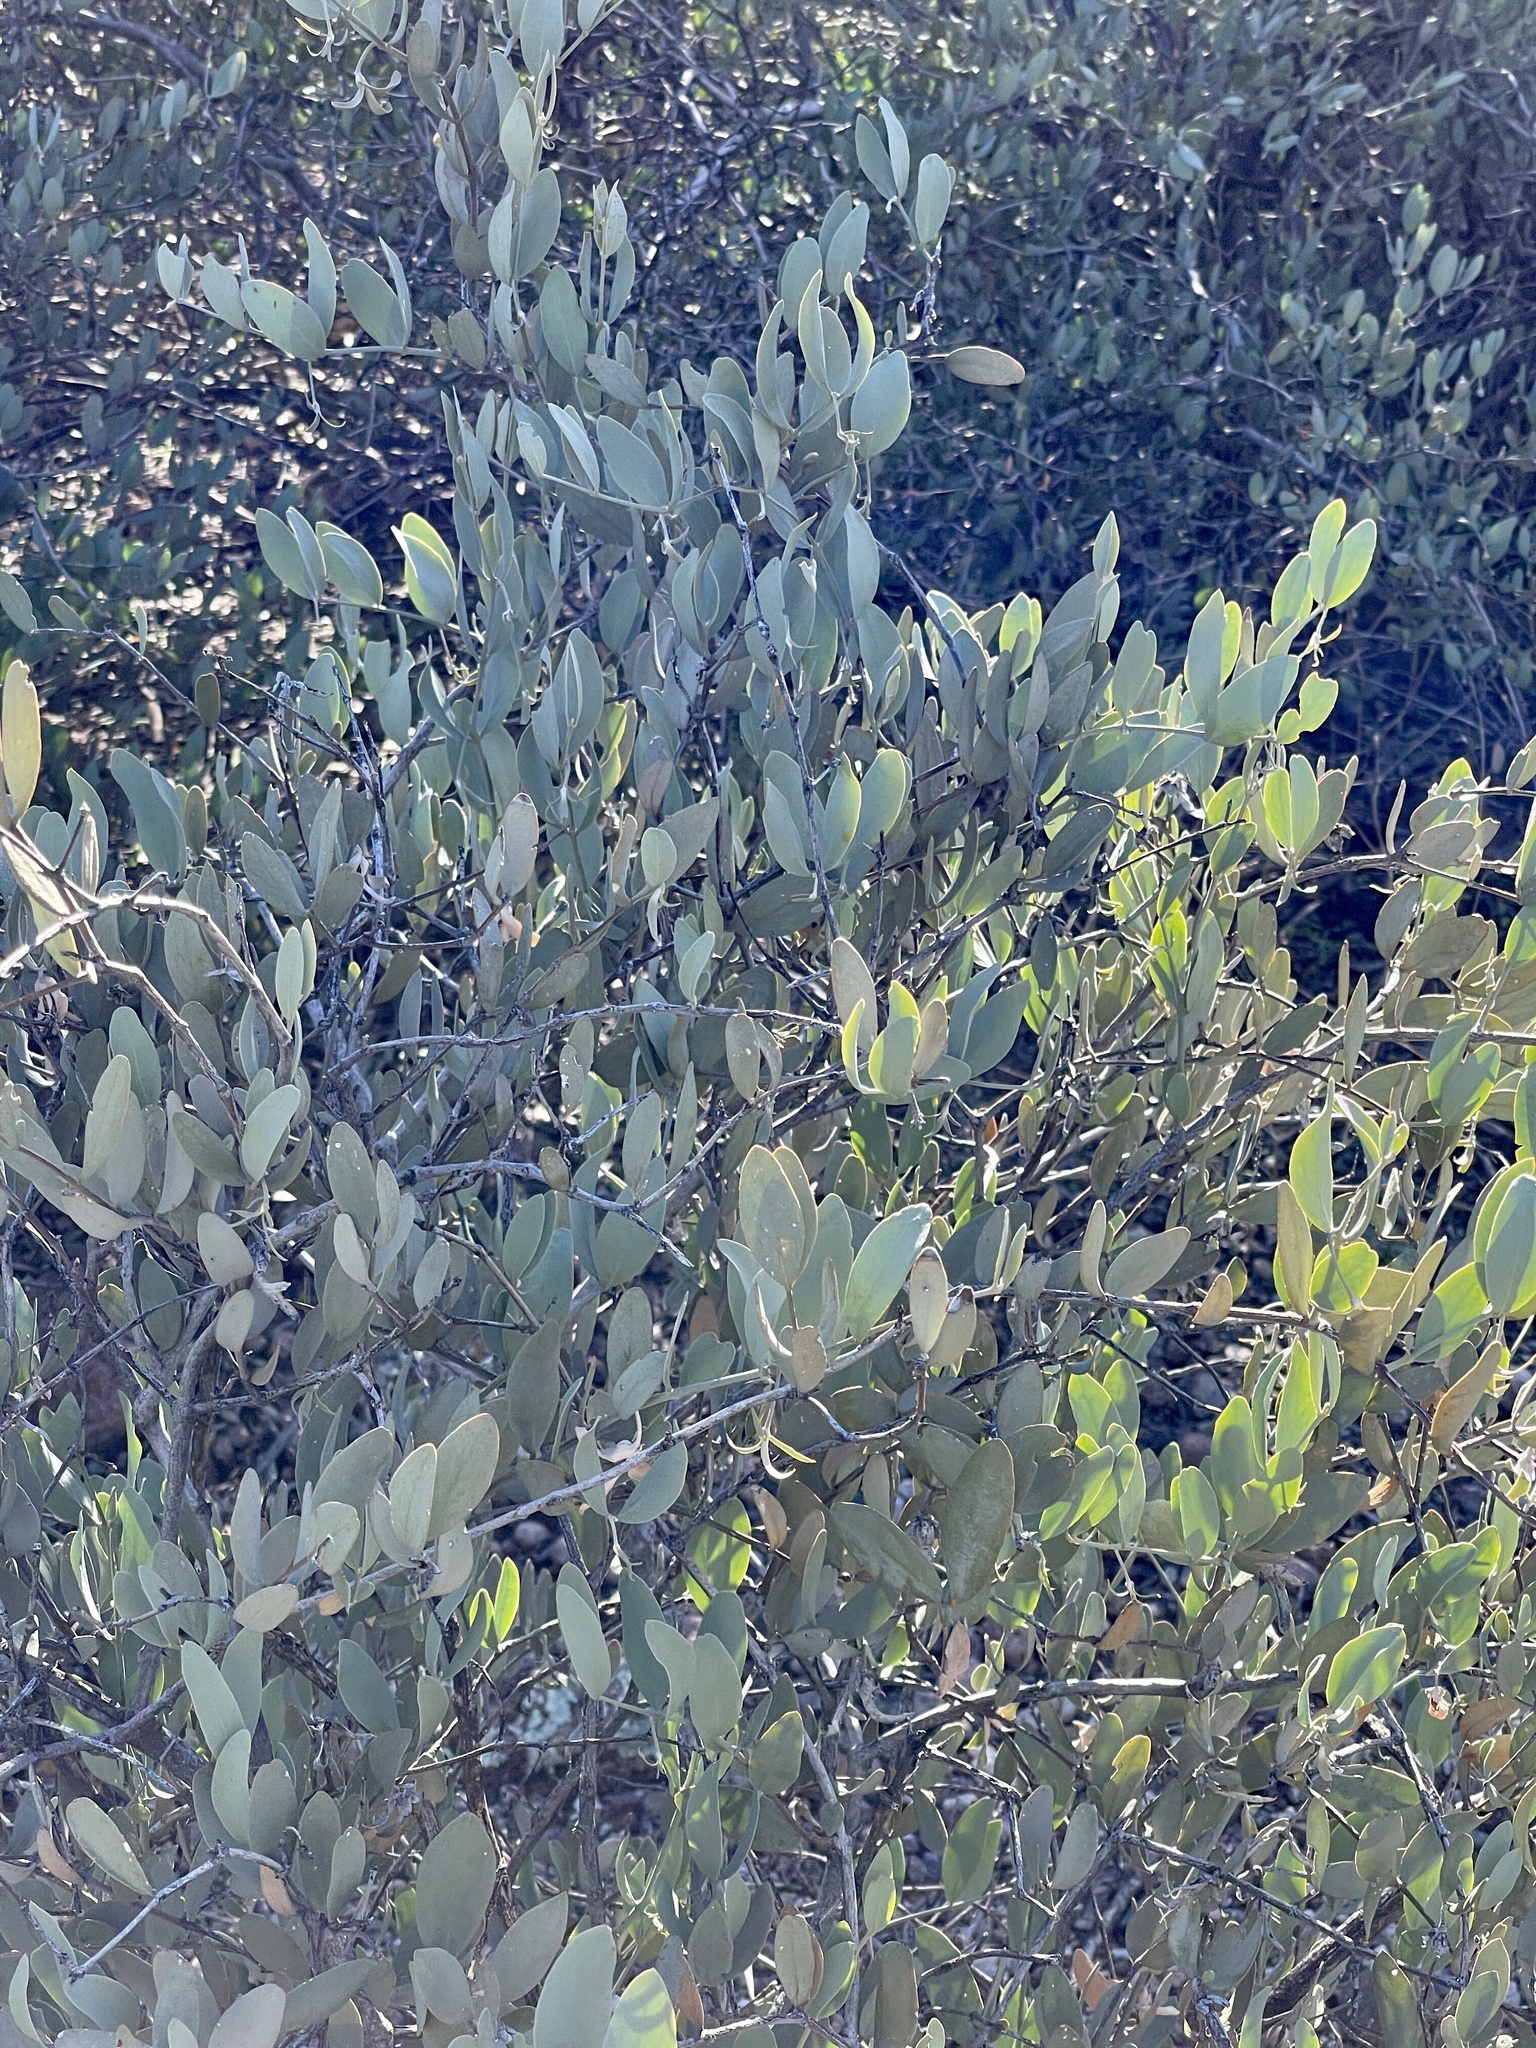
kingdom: Plantae
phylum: Tracheophyta
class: Magnoliopsida
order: Caryophyllales
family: Simmondsiaceae
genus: Simmondsia
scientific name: Simmondsia chinensis
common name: Jojoba
